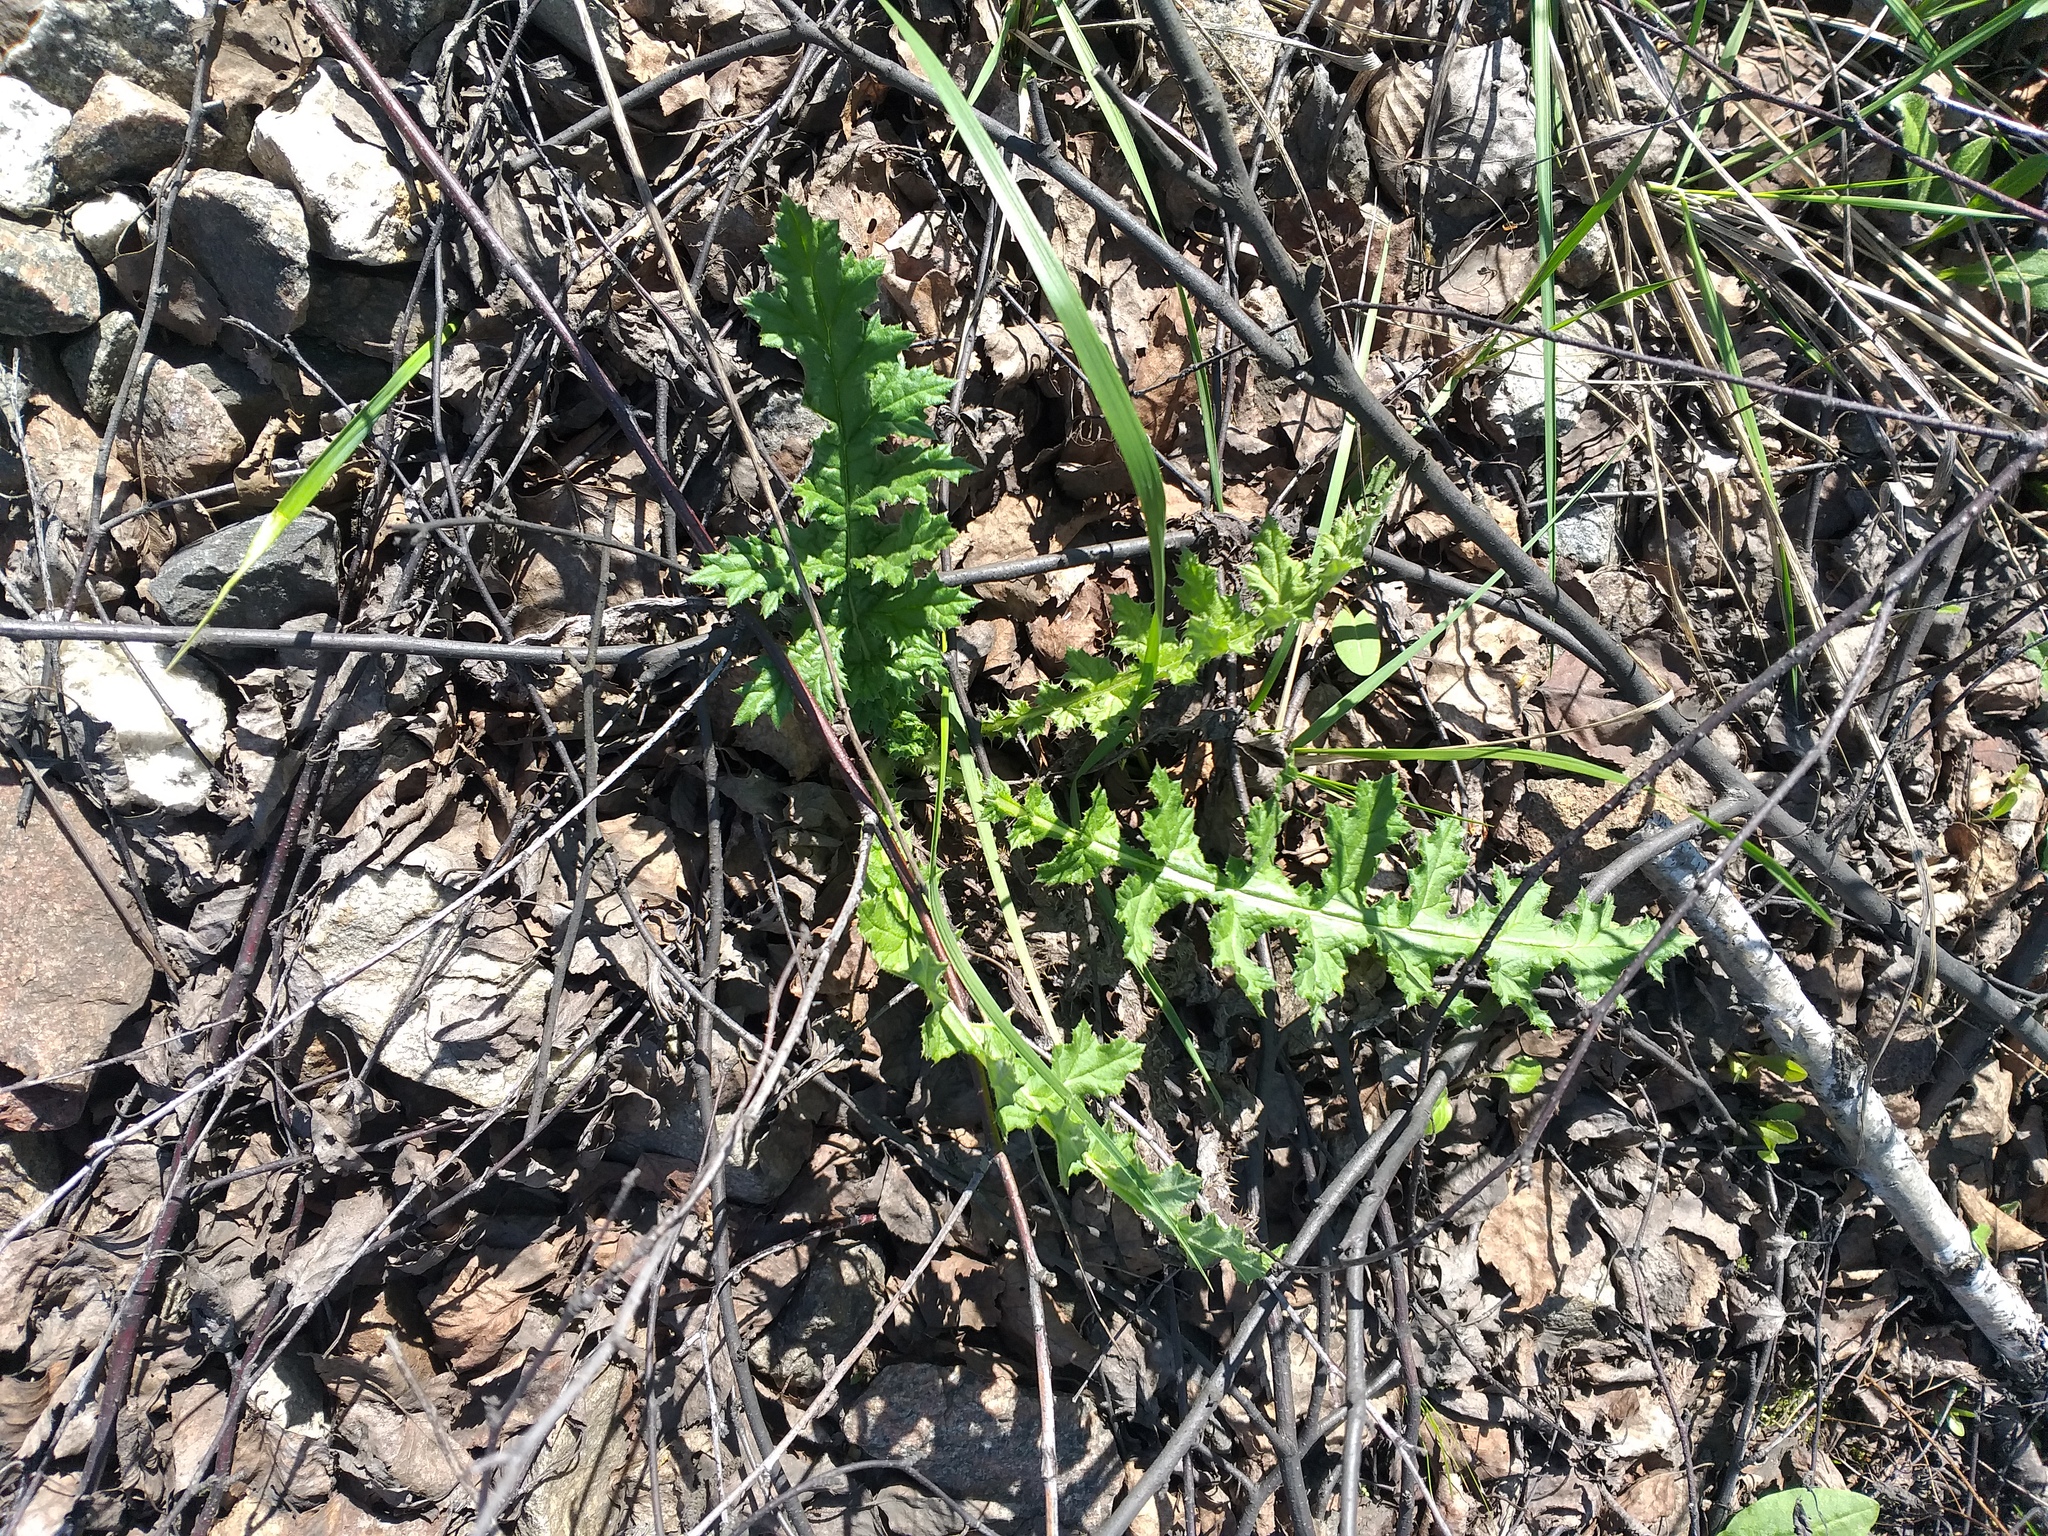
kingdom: Plantae
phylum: Tracheophyta
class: Magnoliopsida
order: Asterales
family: Asteraceae
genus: Echinops
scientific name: Echinops sphaerocephalus
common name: Glandular globe-thistle
